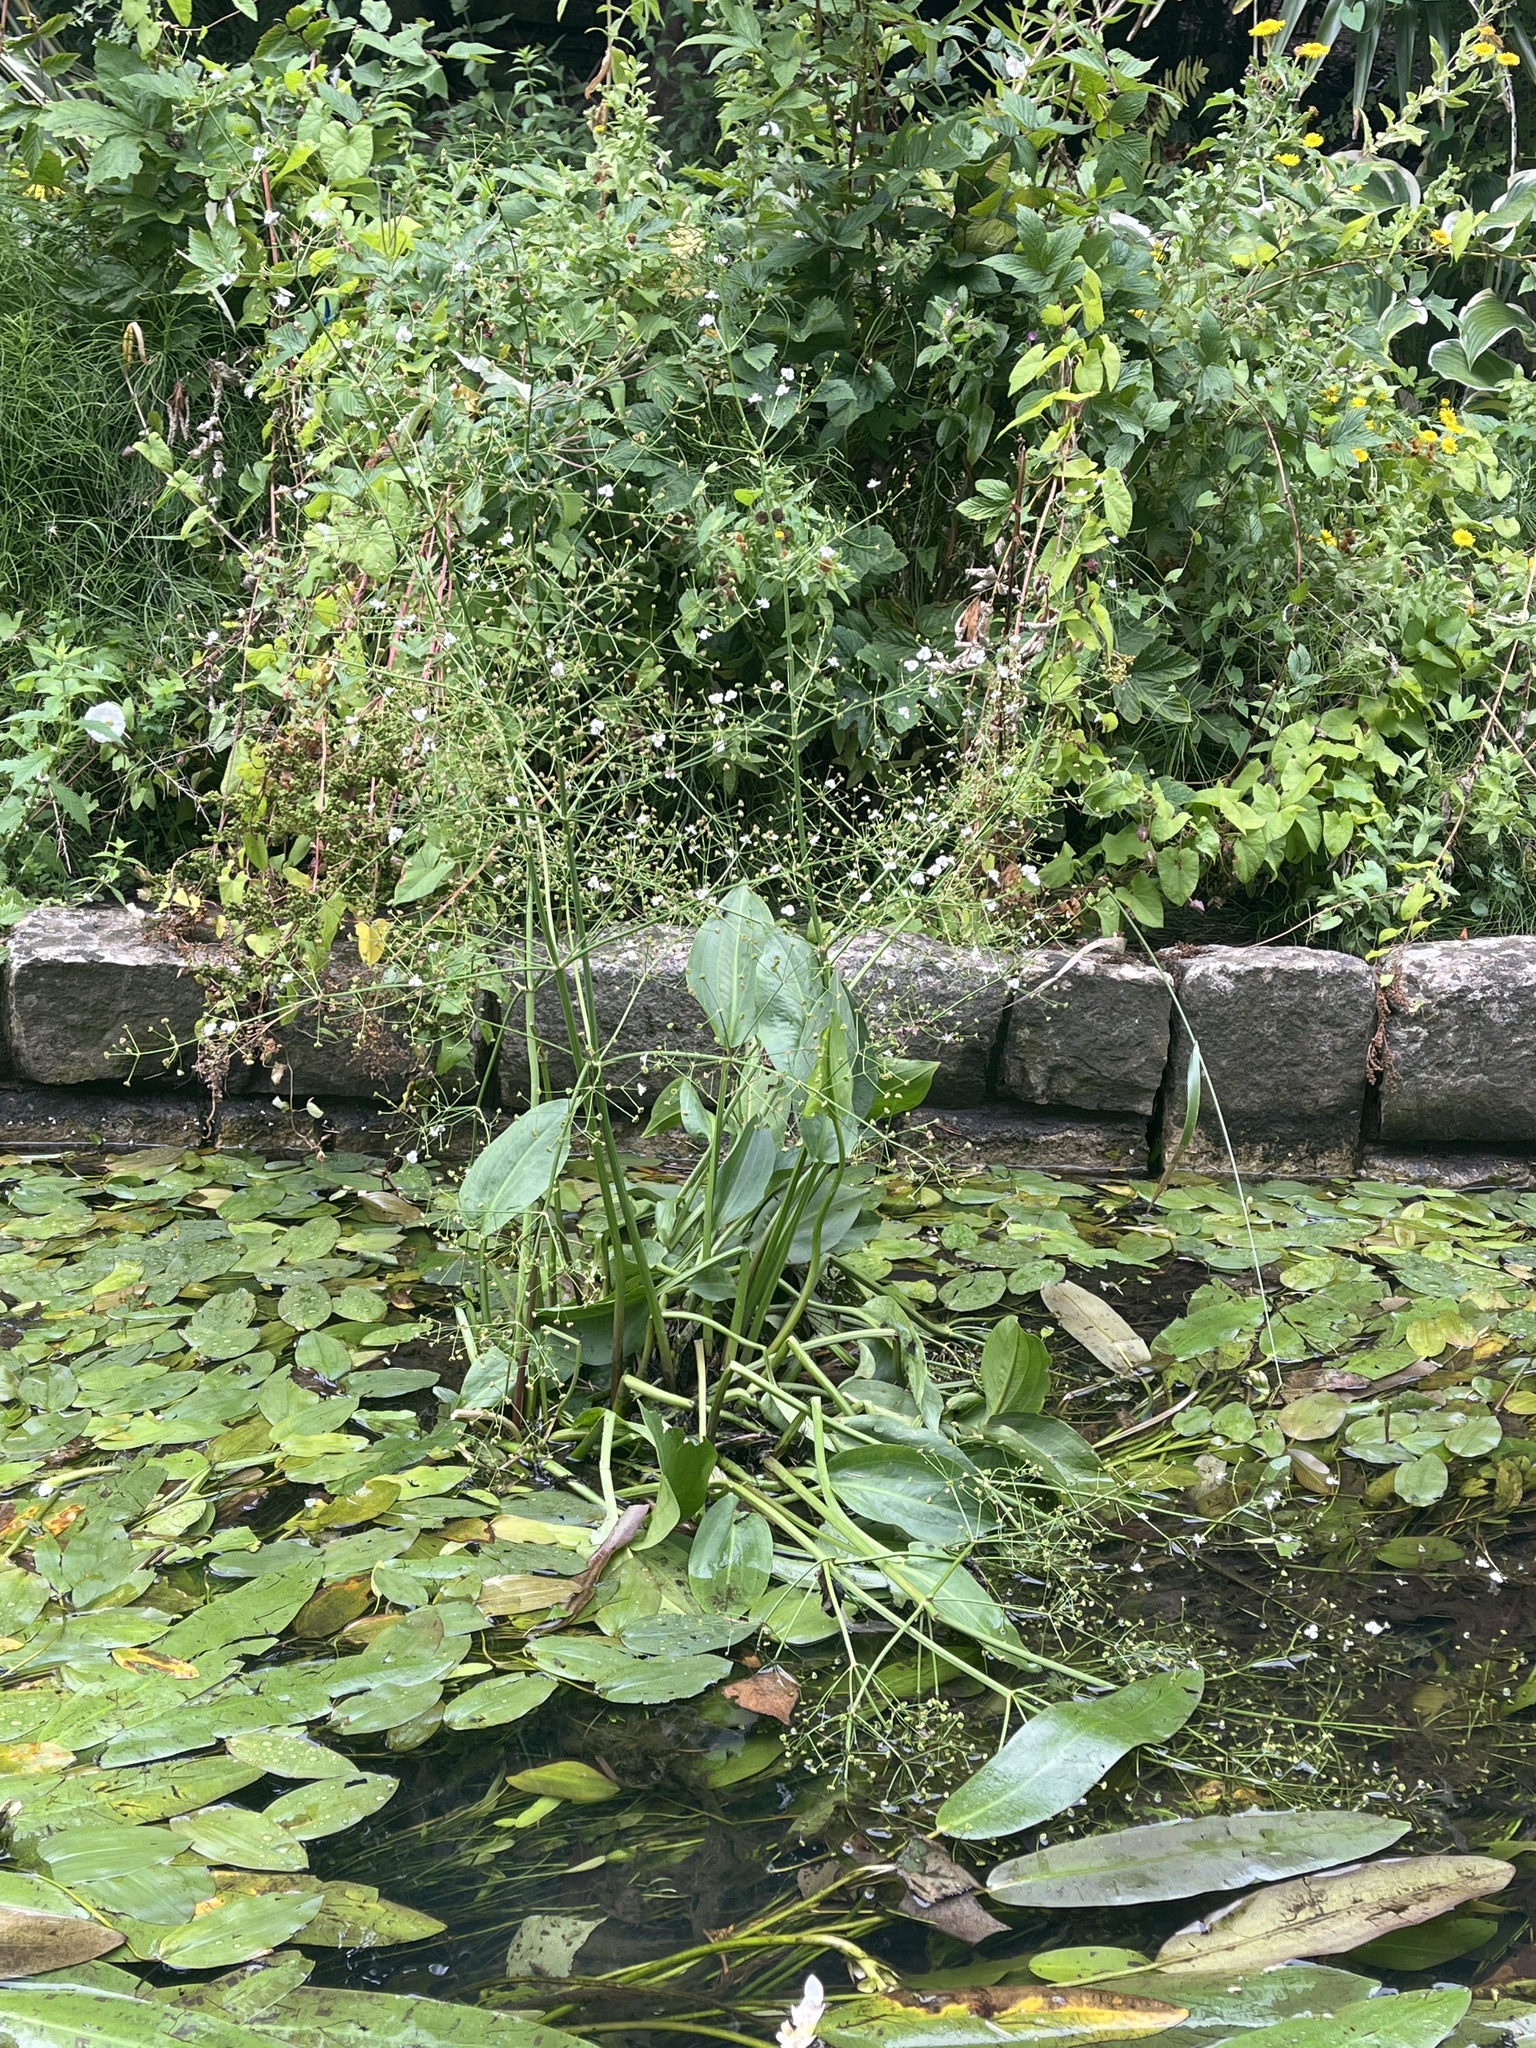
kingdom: Plantae
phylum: Tracheophyta
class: Liliopsida
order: Alismatales
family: Alismataceae
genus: Alisma
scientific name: Alisma plantago-aquatica
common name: Water-plantain
